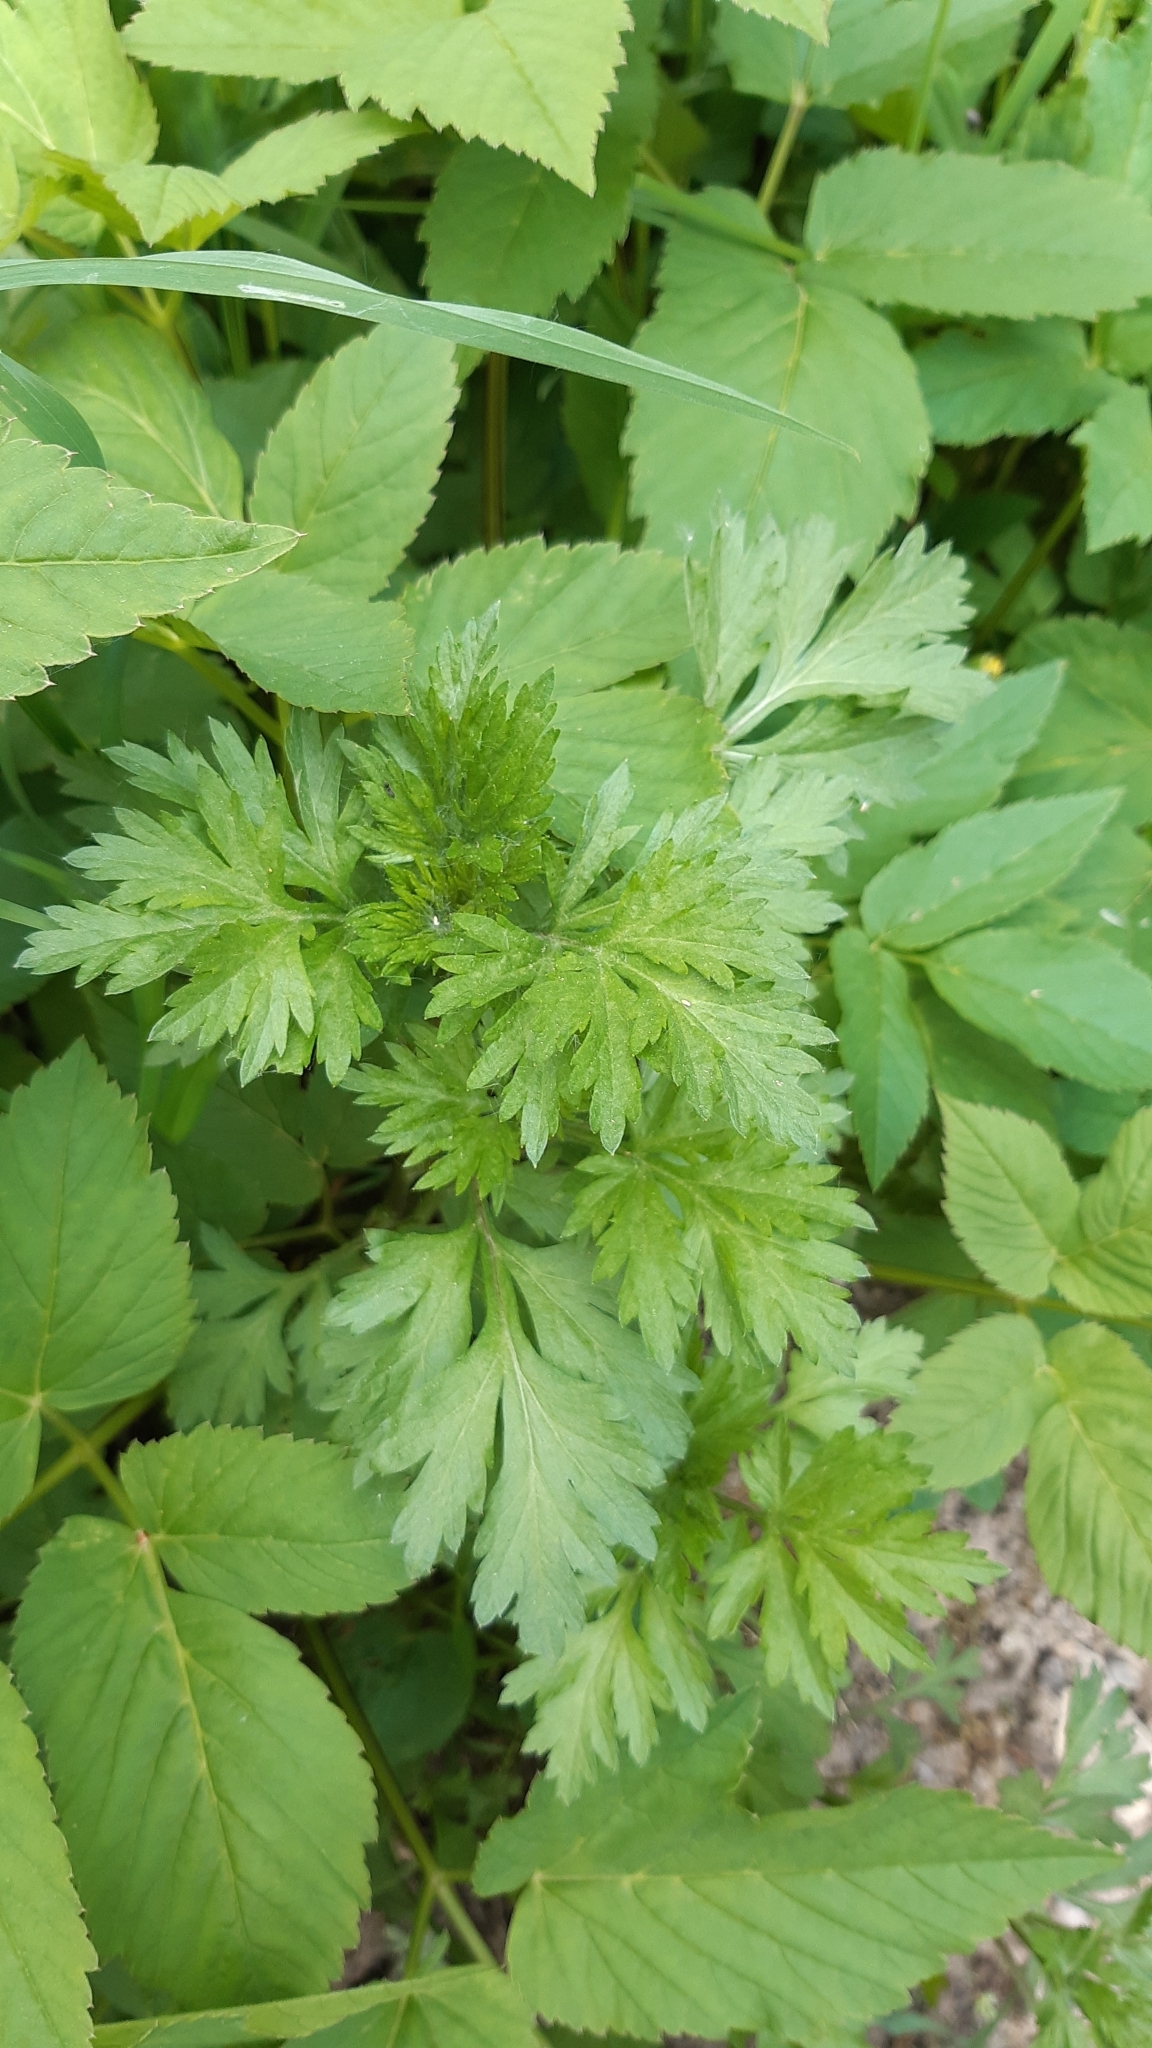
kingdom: Plantae
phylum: Tracheophyta
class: Magnoliopsida
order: Asterales
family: Asteraceae
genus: Artemisia
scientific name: Artemisia vulgaris
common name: Mugwort
